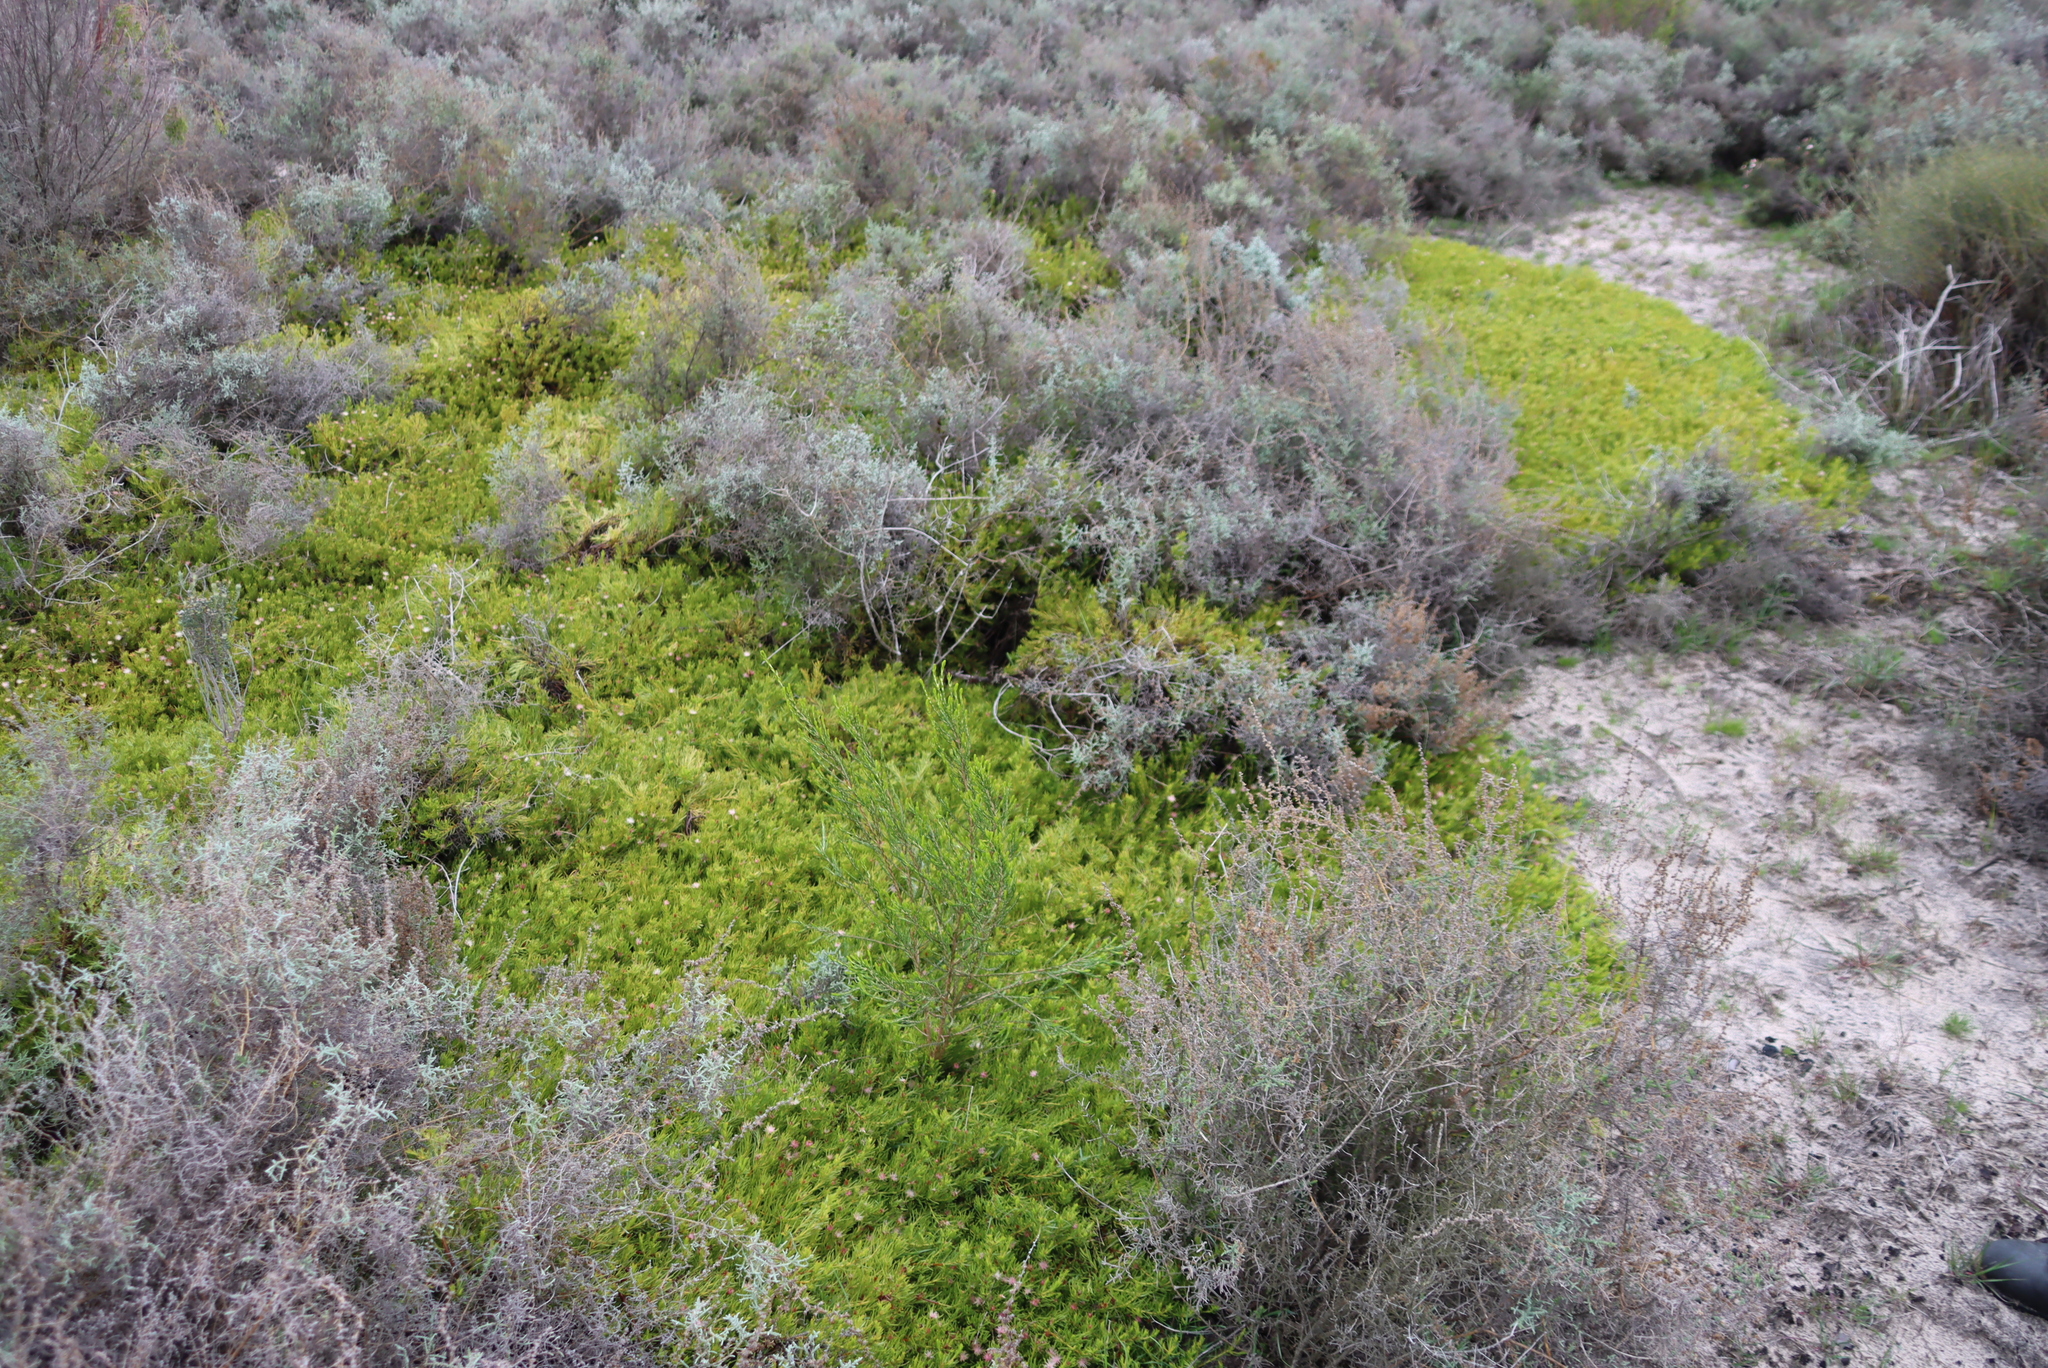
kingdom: Plantae
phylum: Tracheophyta
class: Magnoliopsida
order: Proteales
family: Proteaceae
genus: Diastella
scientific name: Diastella buekii
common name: Franschhoek silkypuff
